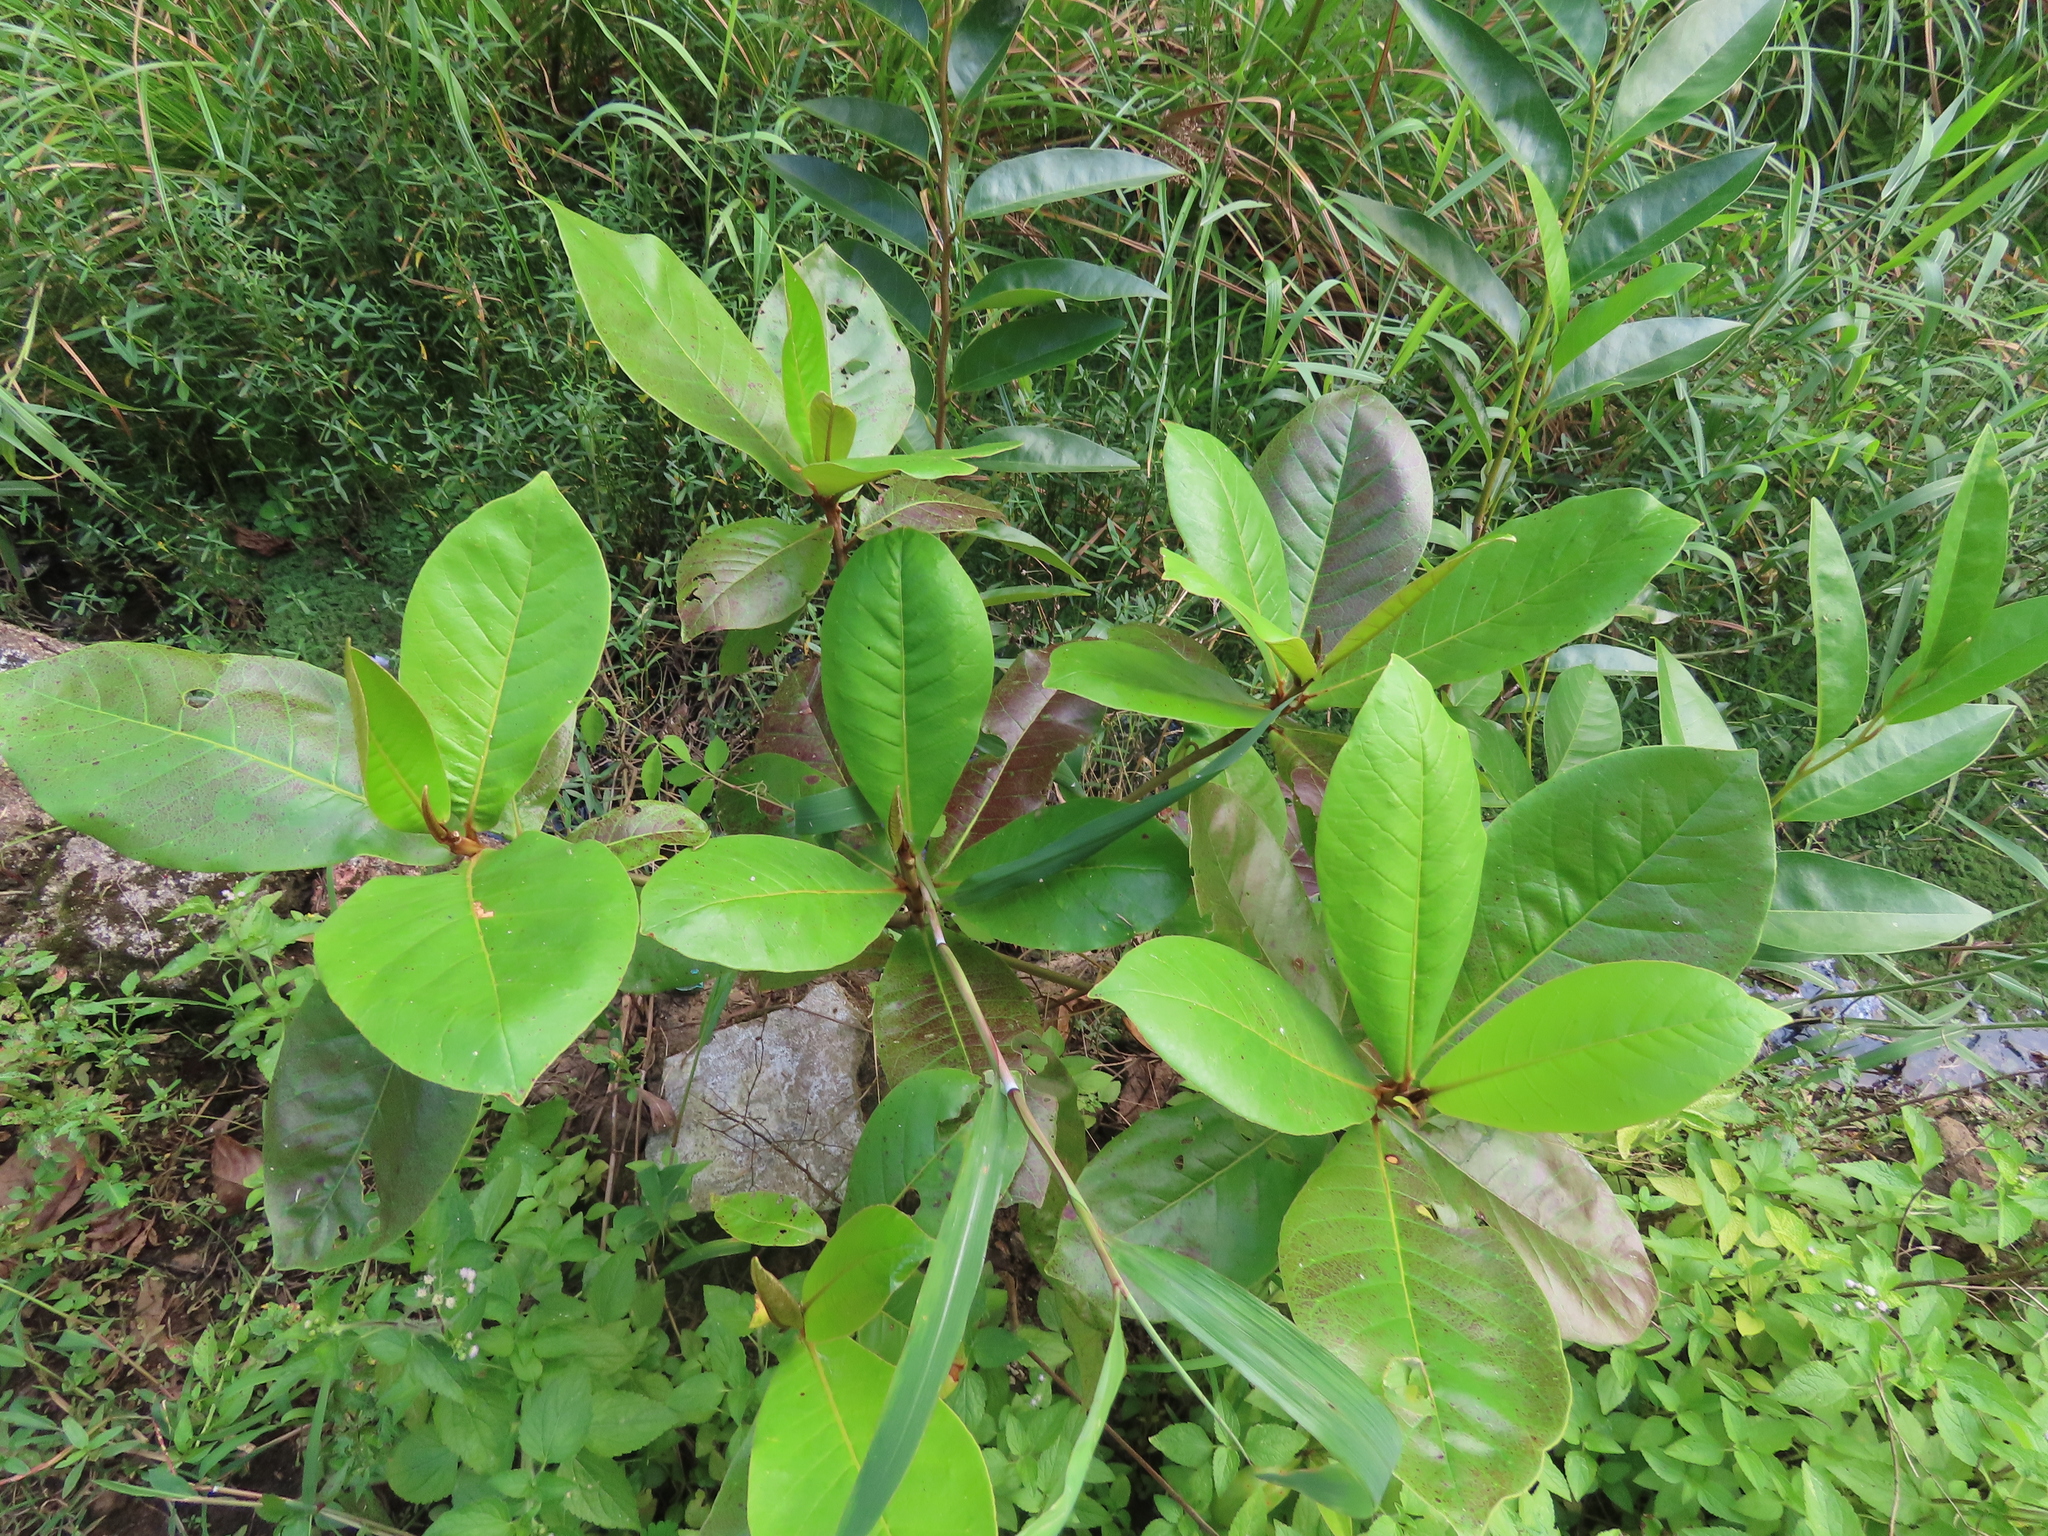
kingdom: Plantae
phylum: Tracheophyta
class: Magnoliopsida
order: Myrtales
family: Combretaceae
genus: Terminalia
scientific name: Terminalia catappa
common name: Tropical almond
